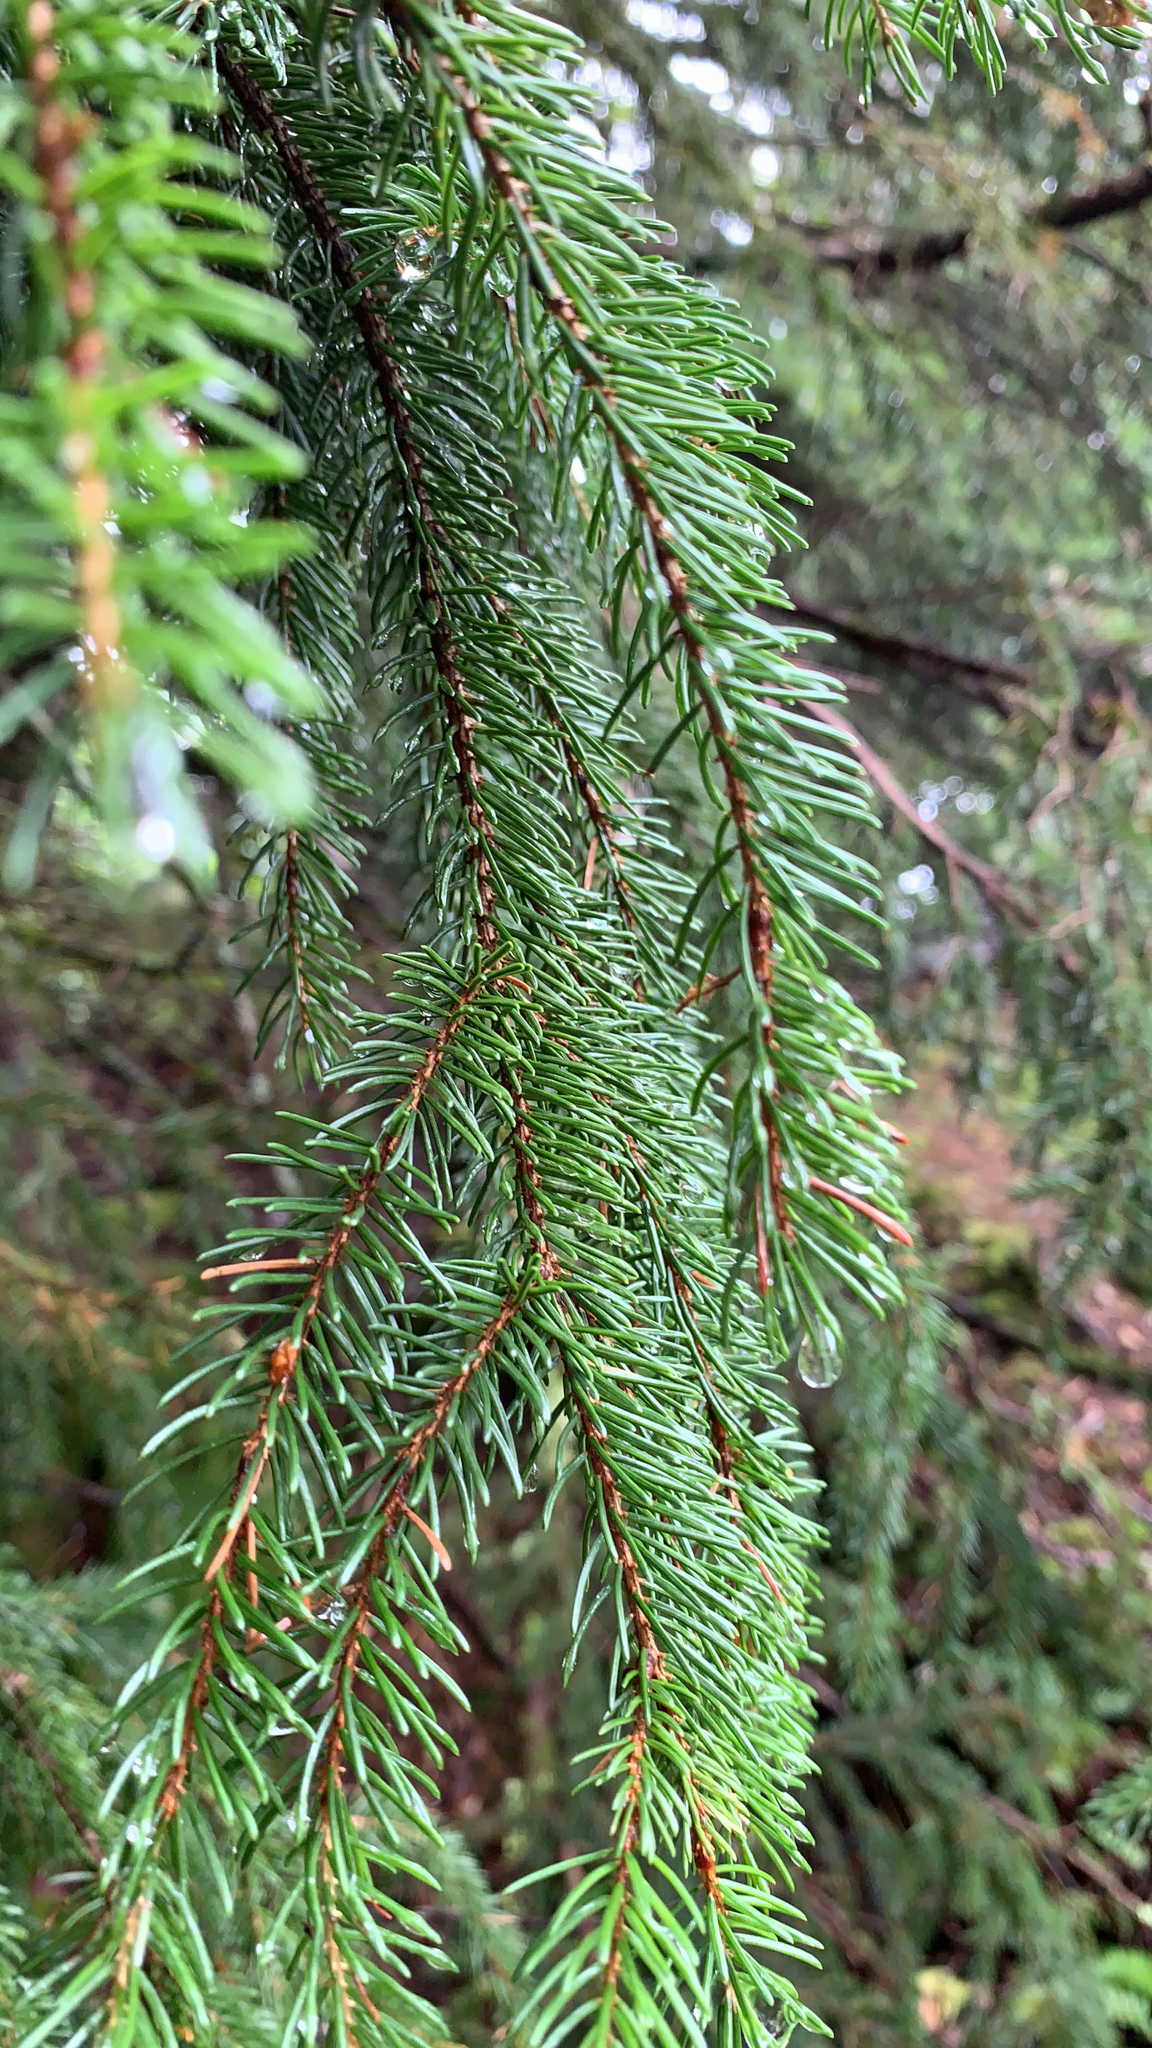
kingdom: Plantae
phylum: Tracheophyta
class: Pinopsida
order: Pinales
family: Pinaceae
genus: Picea
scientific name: Picea abies
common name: Norway spruce
